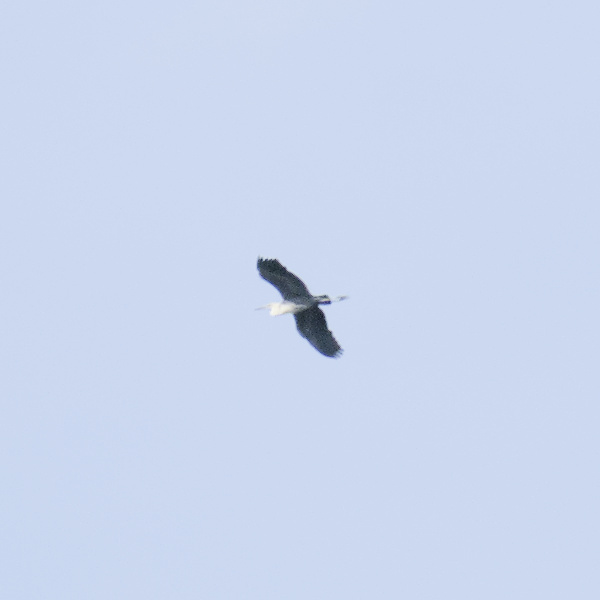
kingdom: Animalia
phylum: Chordata
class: Aves
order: Pelecaniformes
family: Ardeidae
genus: Ardea
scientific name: Ardea pacifica
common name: White-necked heron
